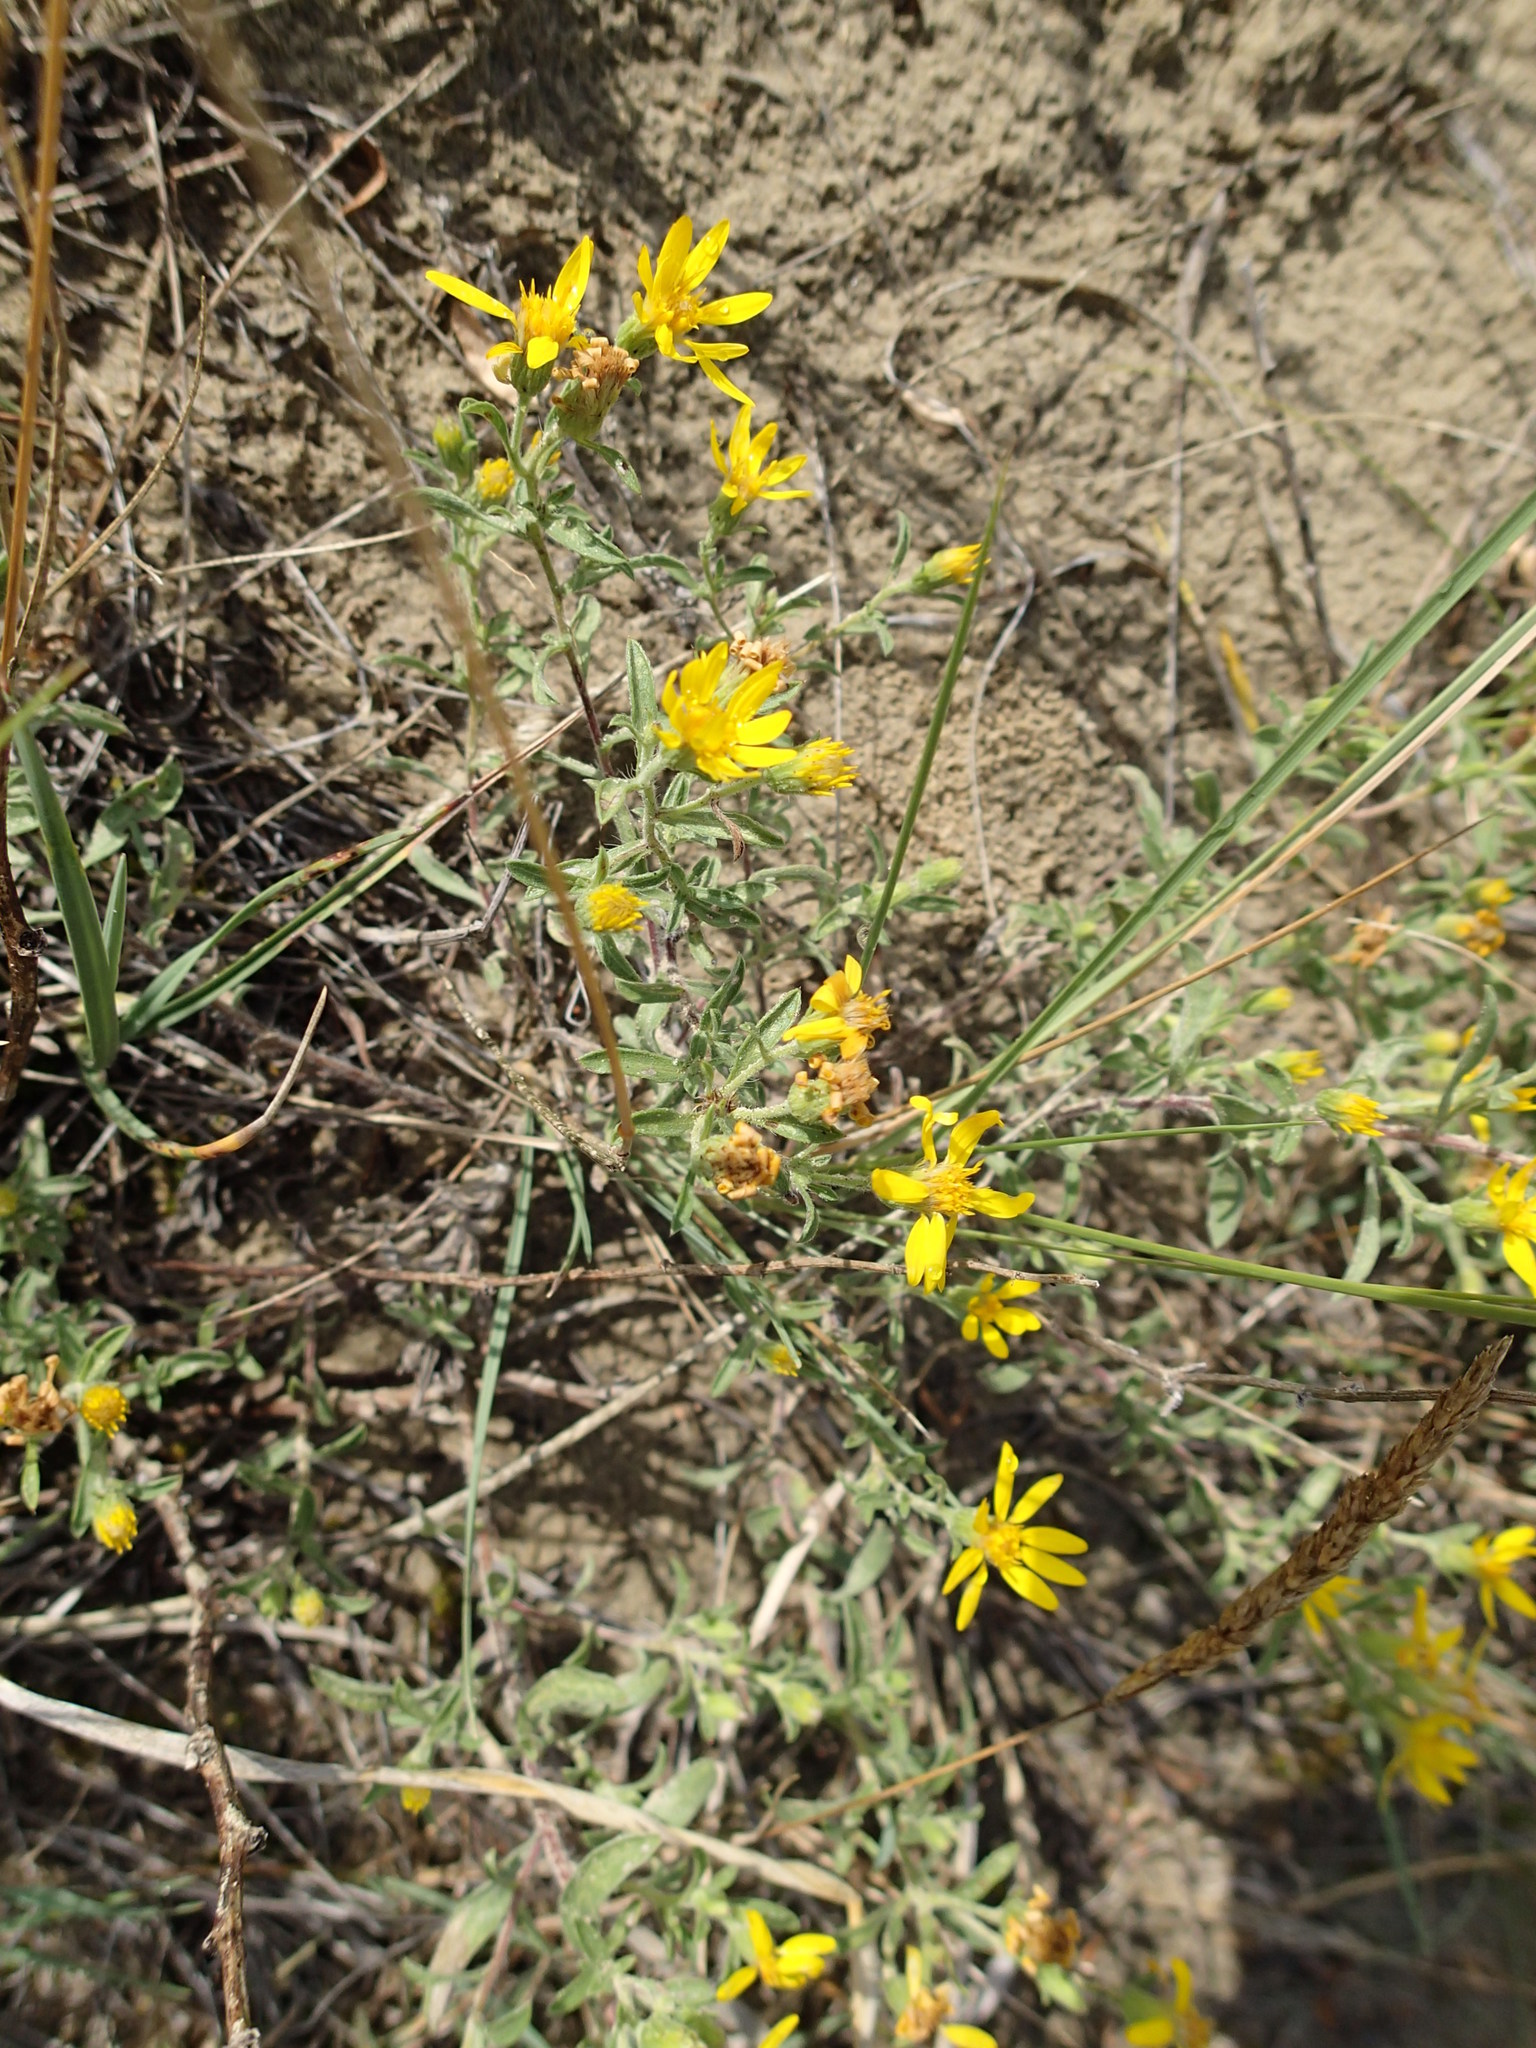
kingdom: Plantae
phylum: Tracheophyta
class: Magnoliopsida
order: Asterales
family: Asteraceae
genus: Heterotheca
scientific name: Heterotheca villosa
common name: Hairy false goldenaster
